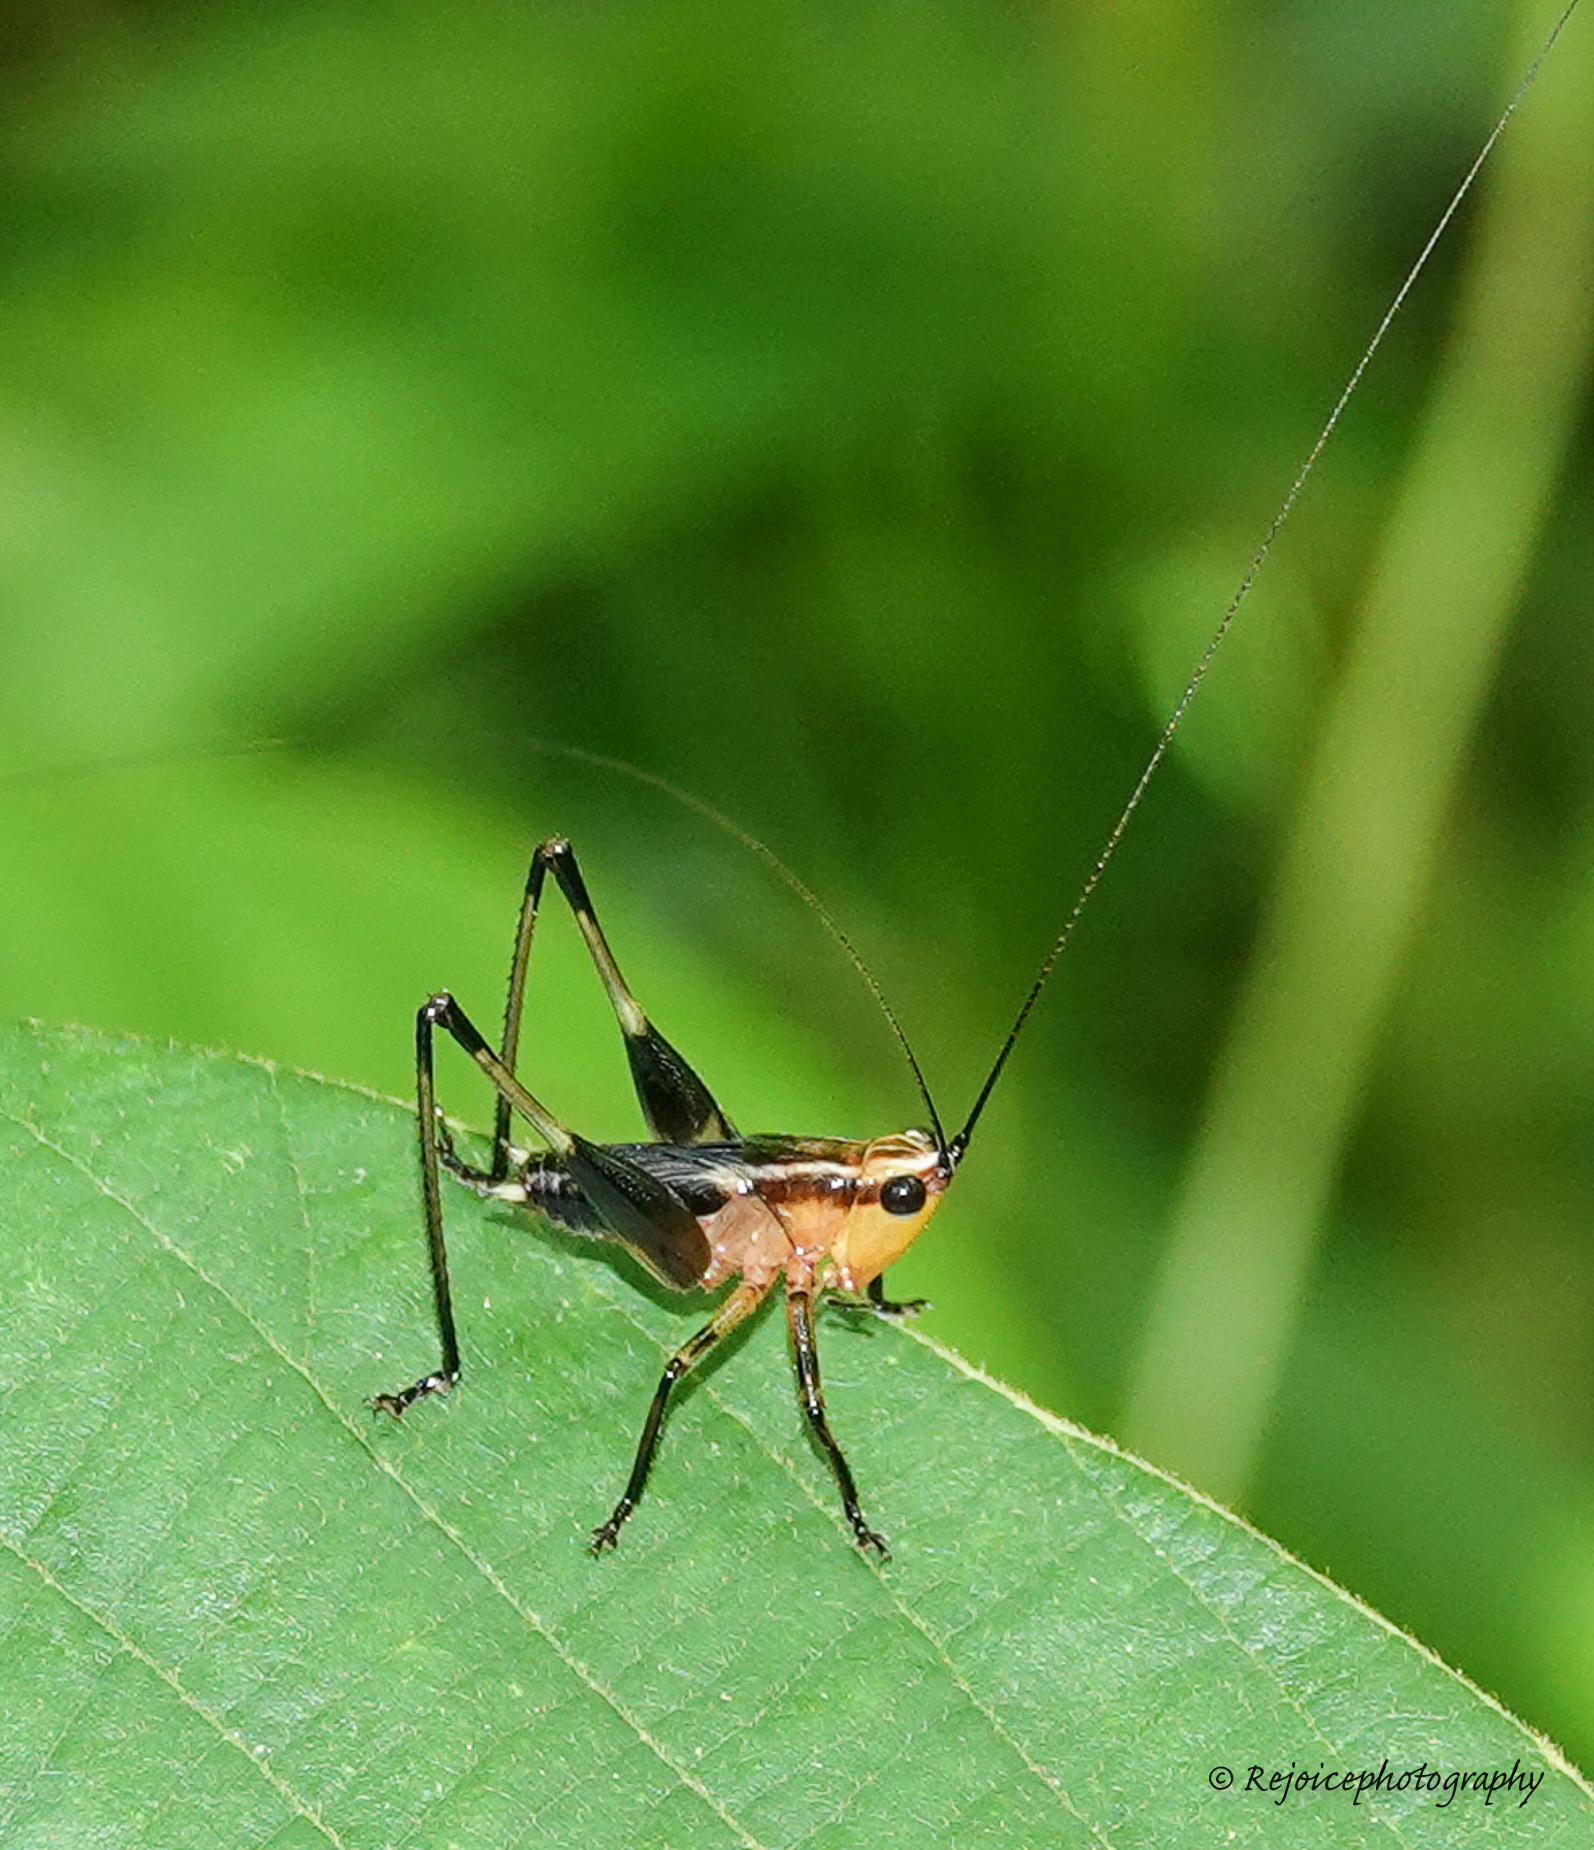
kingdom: Animalia
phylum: Arthropoda
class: Insecta
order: Orthoptera
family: Tettigoniidae
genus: Conocephalus
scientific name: Conocephalus melaenus
